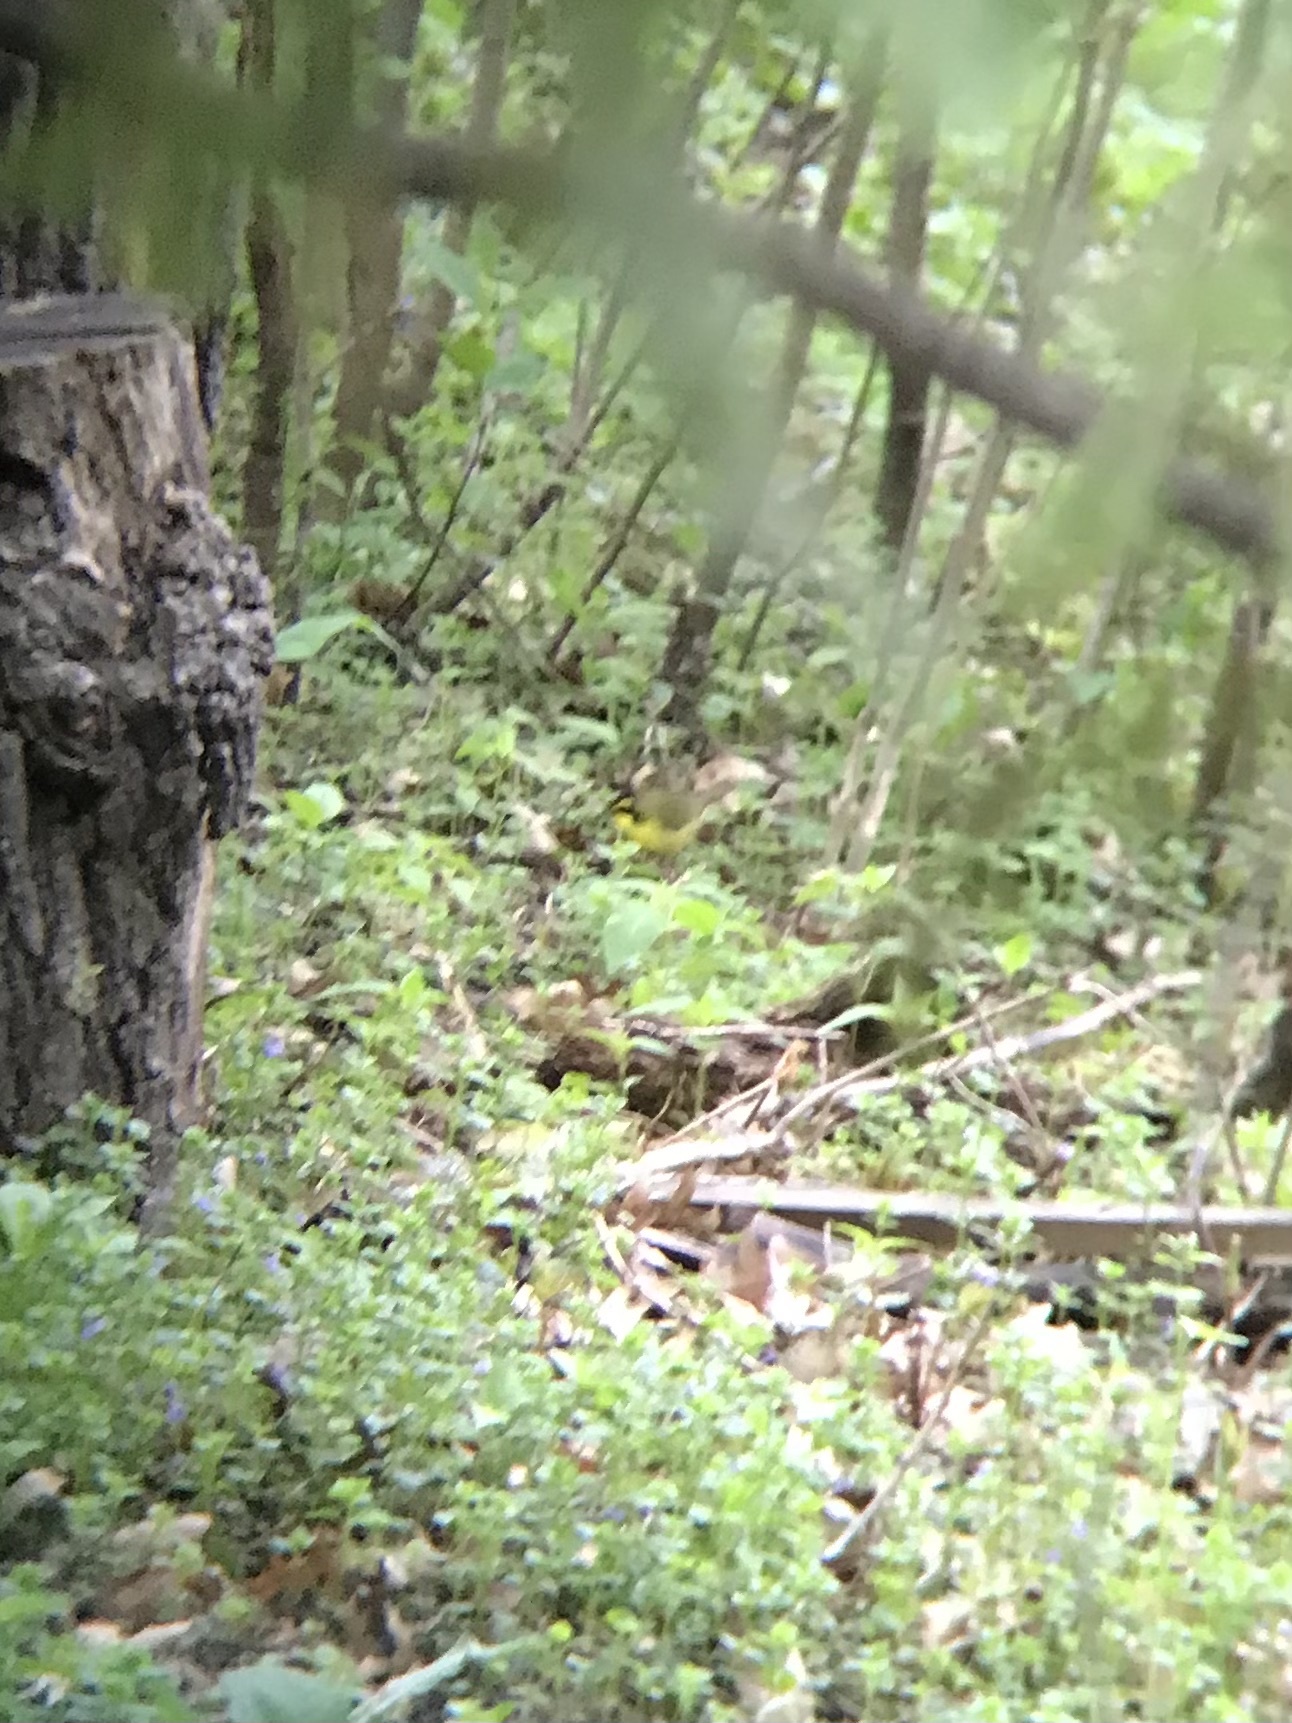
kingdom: Animalia
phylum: Chordata
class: Aves
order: Passeriformes
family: Parulidae
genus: Geothlypis
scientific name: Geothlypis formosa
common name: Kentucky warbler
